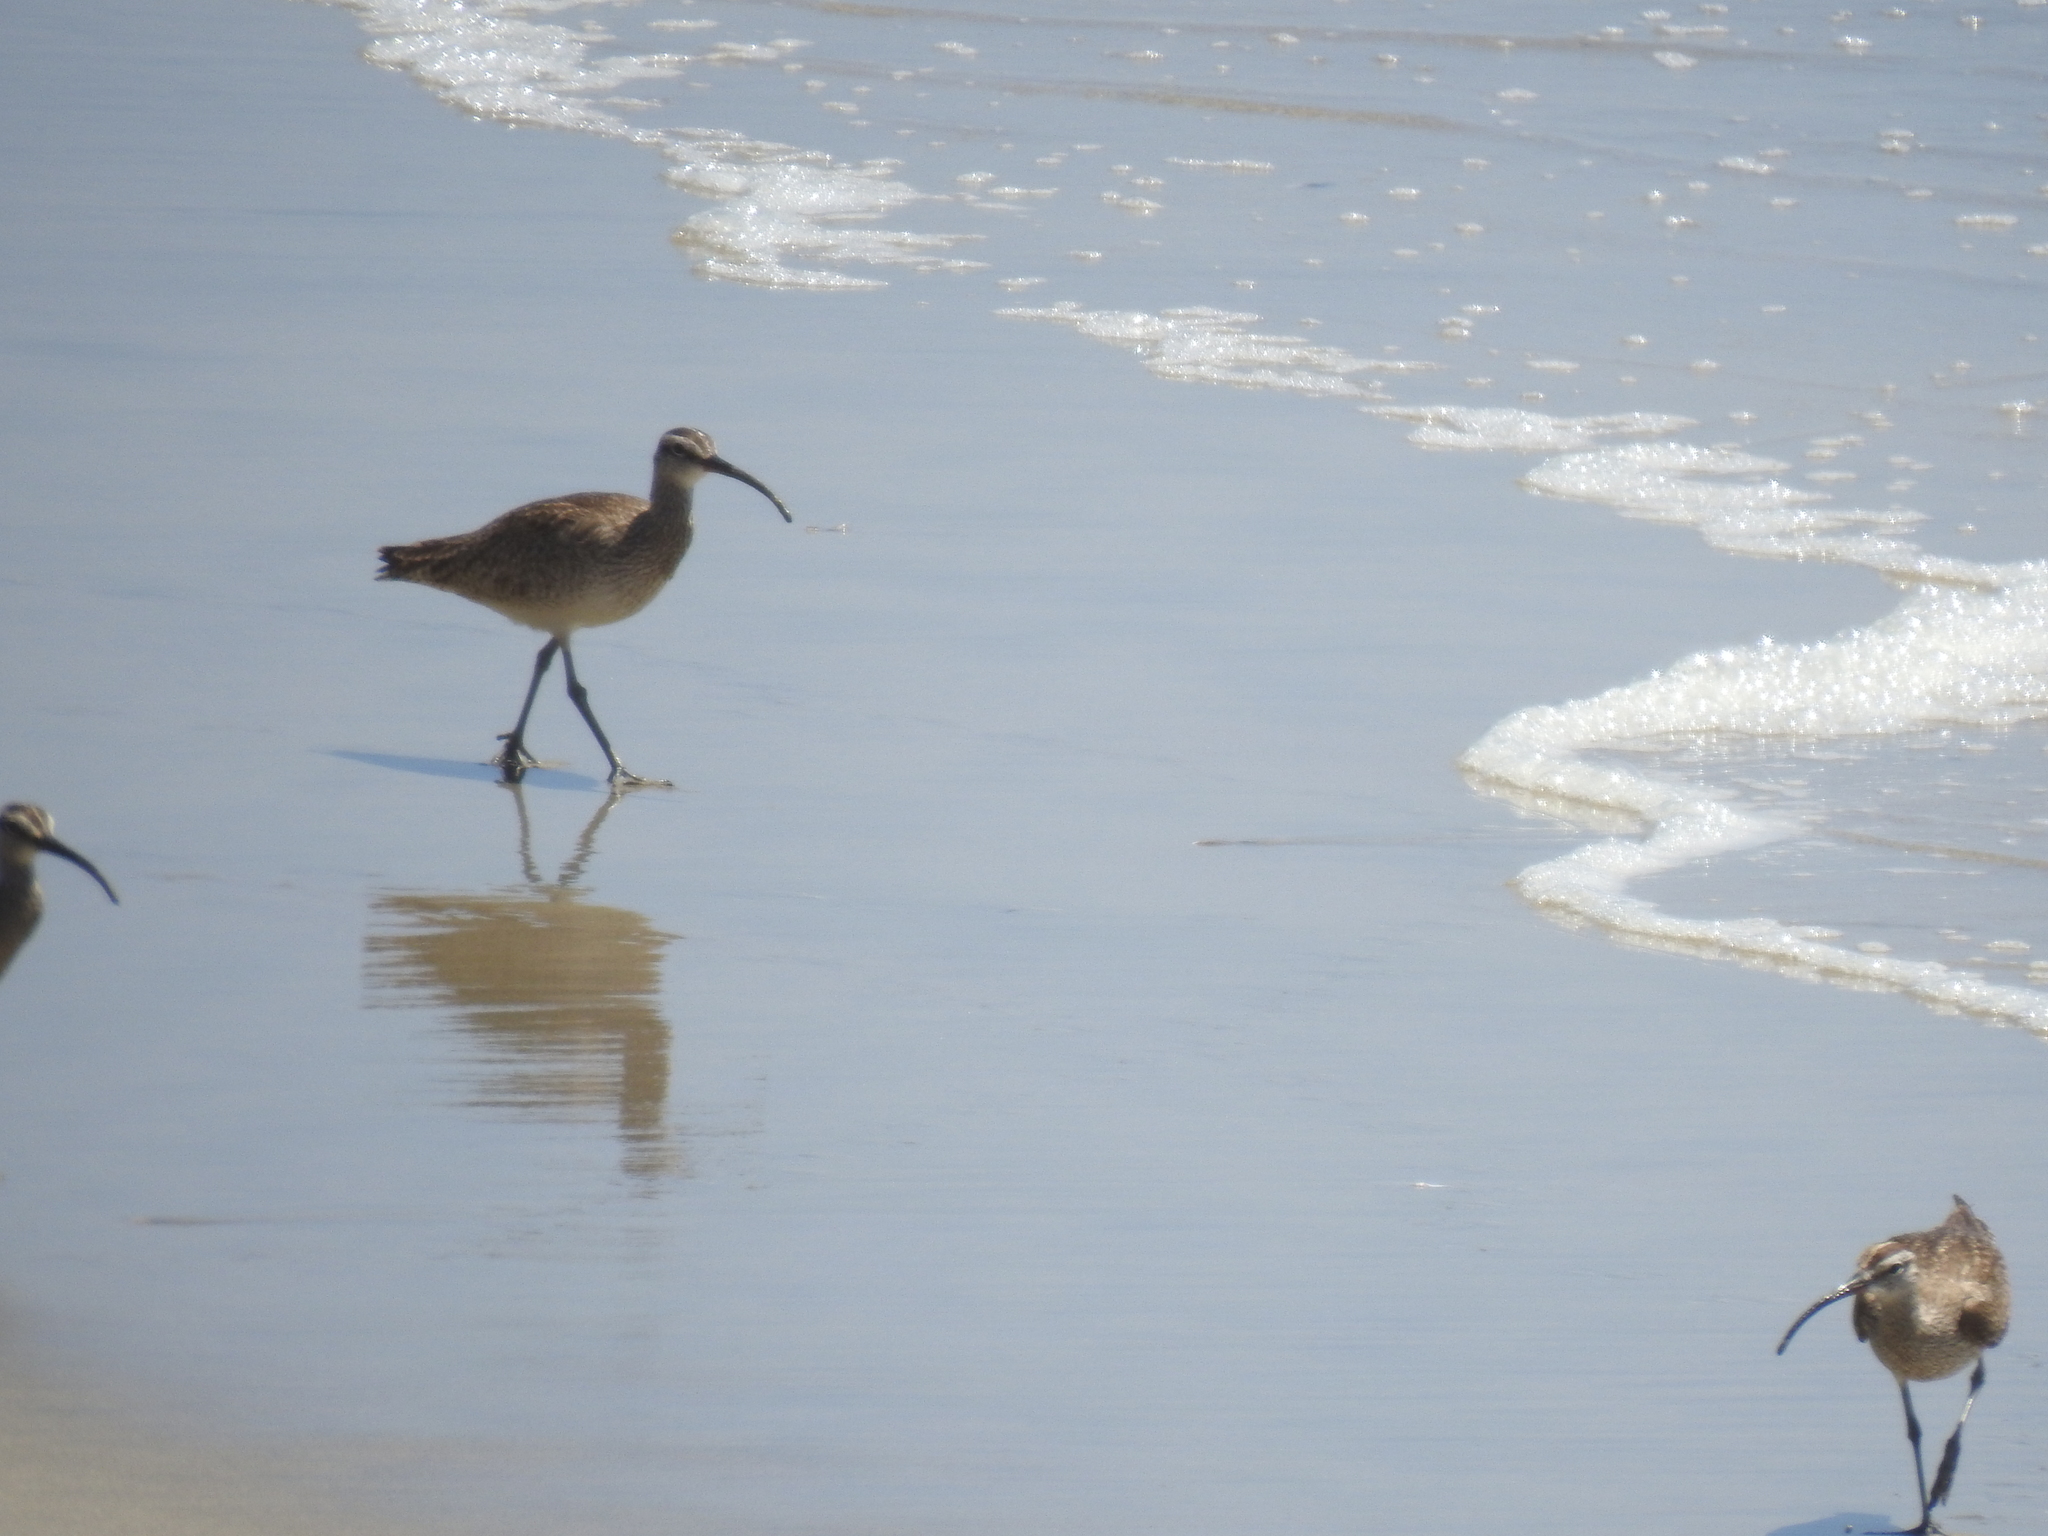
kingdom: Animalia
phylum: Chordata
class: Aves
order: Charadriiformes
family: Scolopacidae
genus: Numenius
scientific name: Numenius phaeopus
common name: Whimbrel
